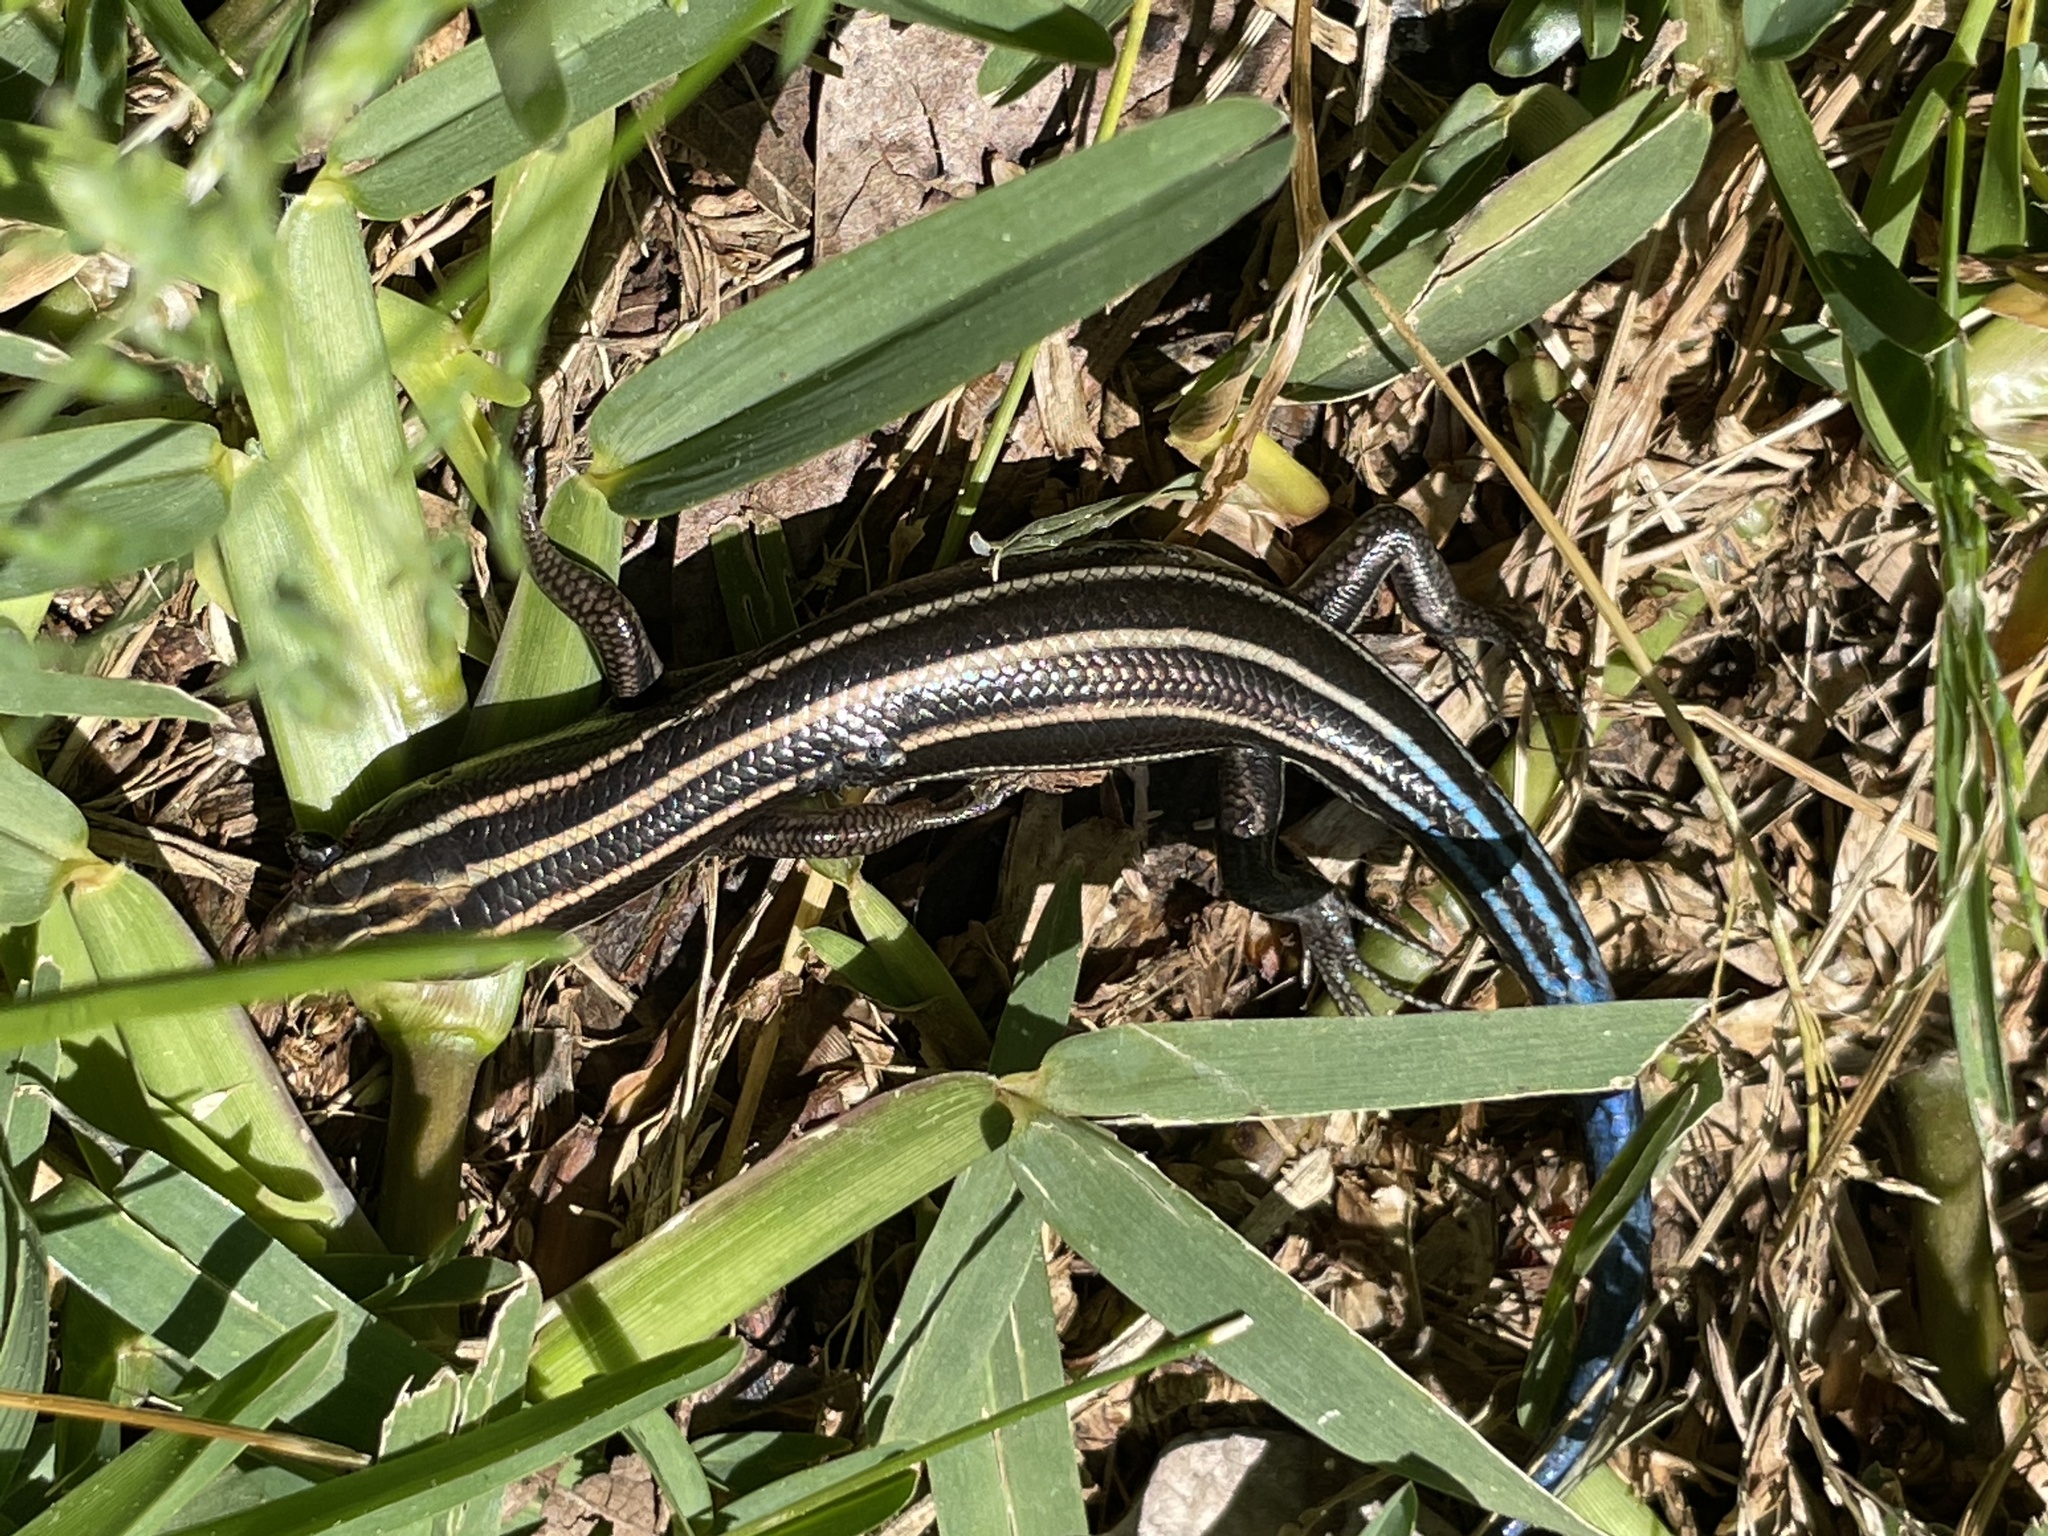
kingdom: Animalia
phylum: Chordata
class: Squamata
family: Scincidae
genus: Plestiodon
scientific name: Plestiodon fasciatus
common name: Five-lined skink
